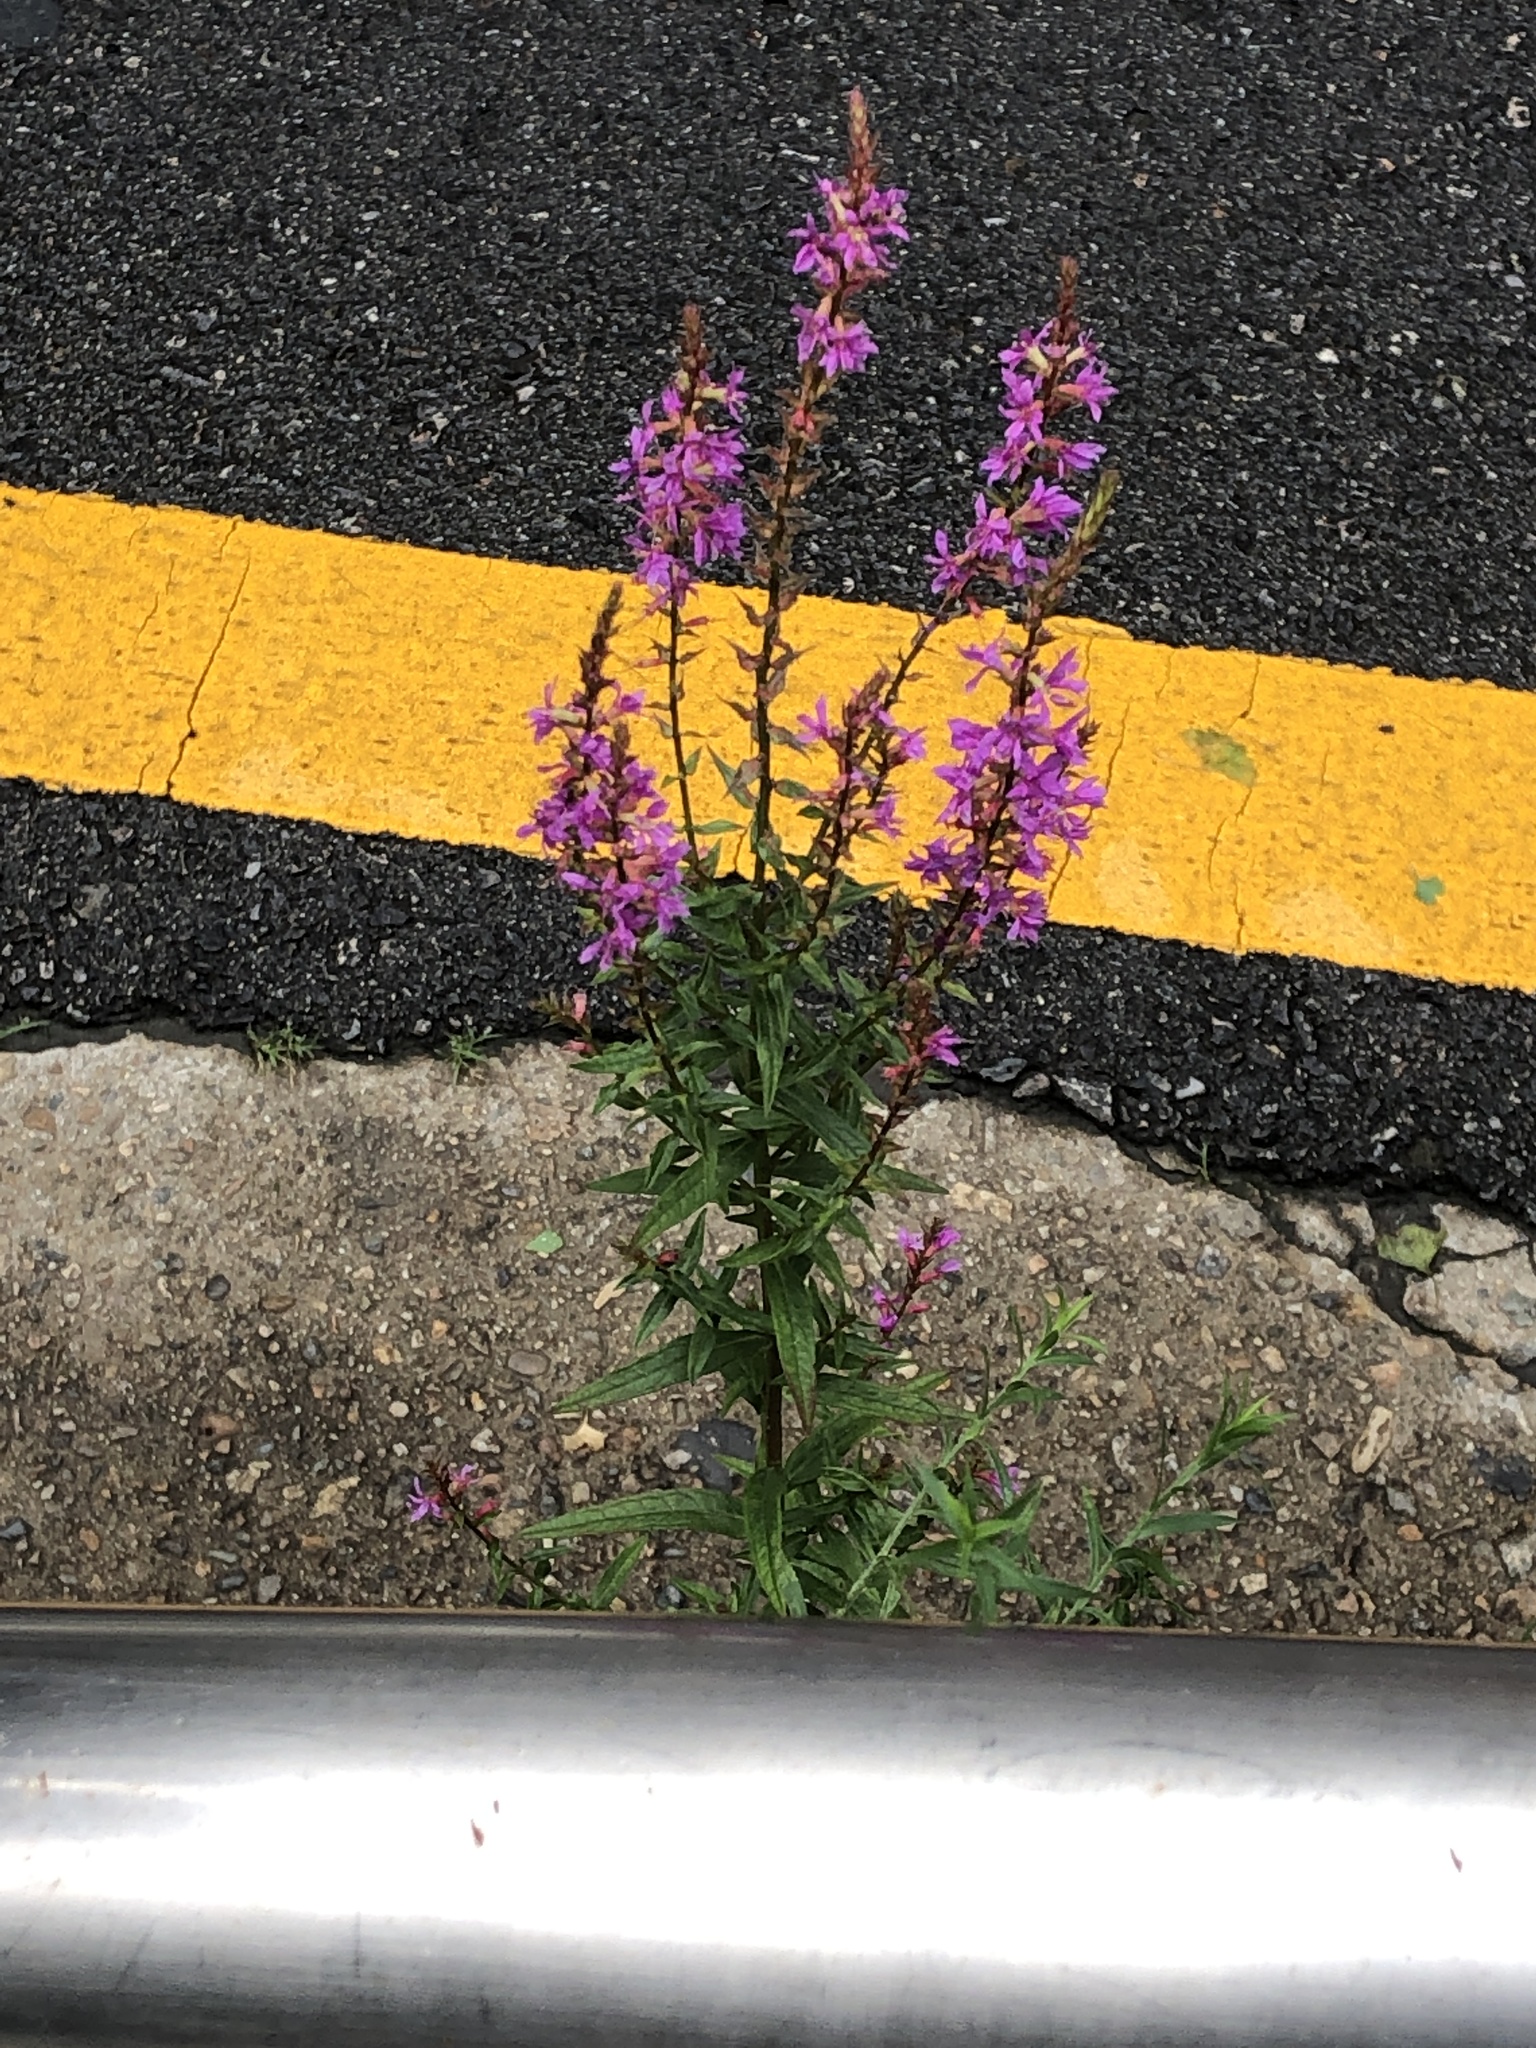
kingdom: Plantae
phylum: Tracheophyta
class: Magnoliopsida
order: Myrtales
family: Lythraceae
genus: Lythrum
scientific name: Lythrum salicaria
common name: Purple loosestrife
